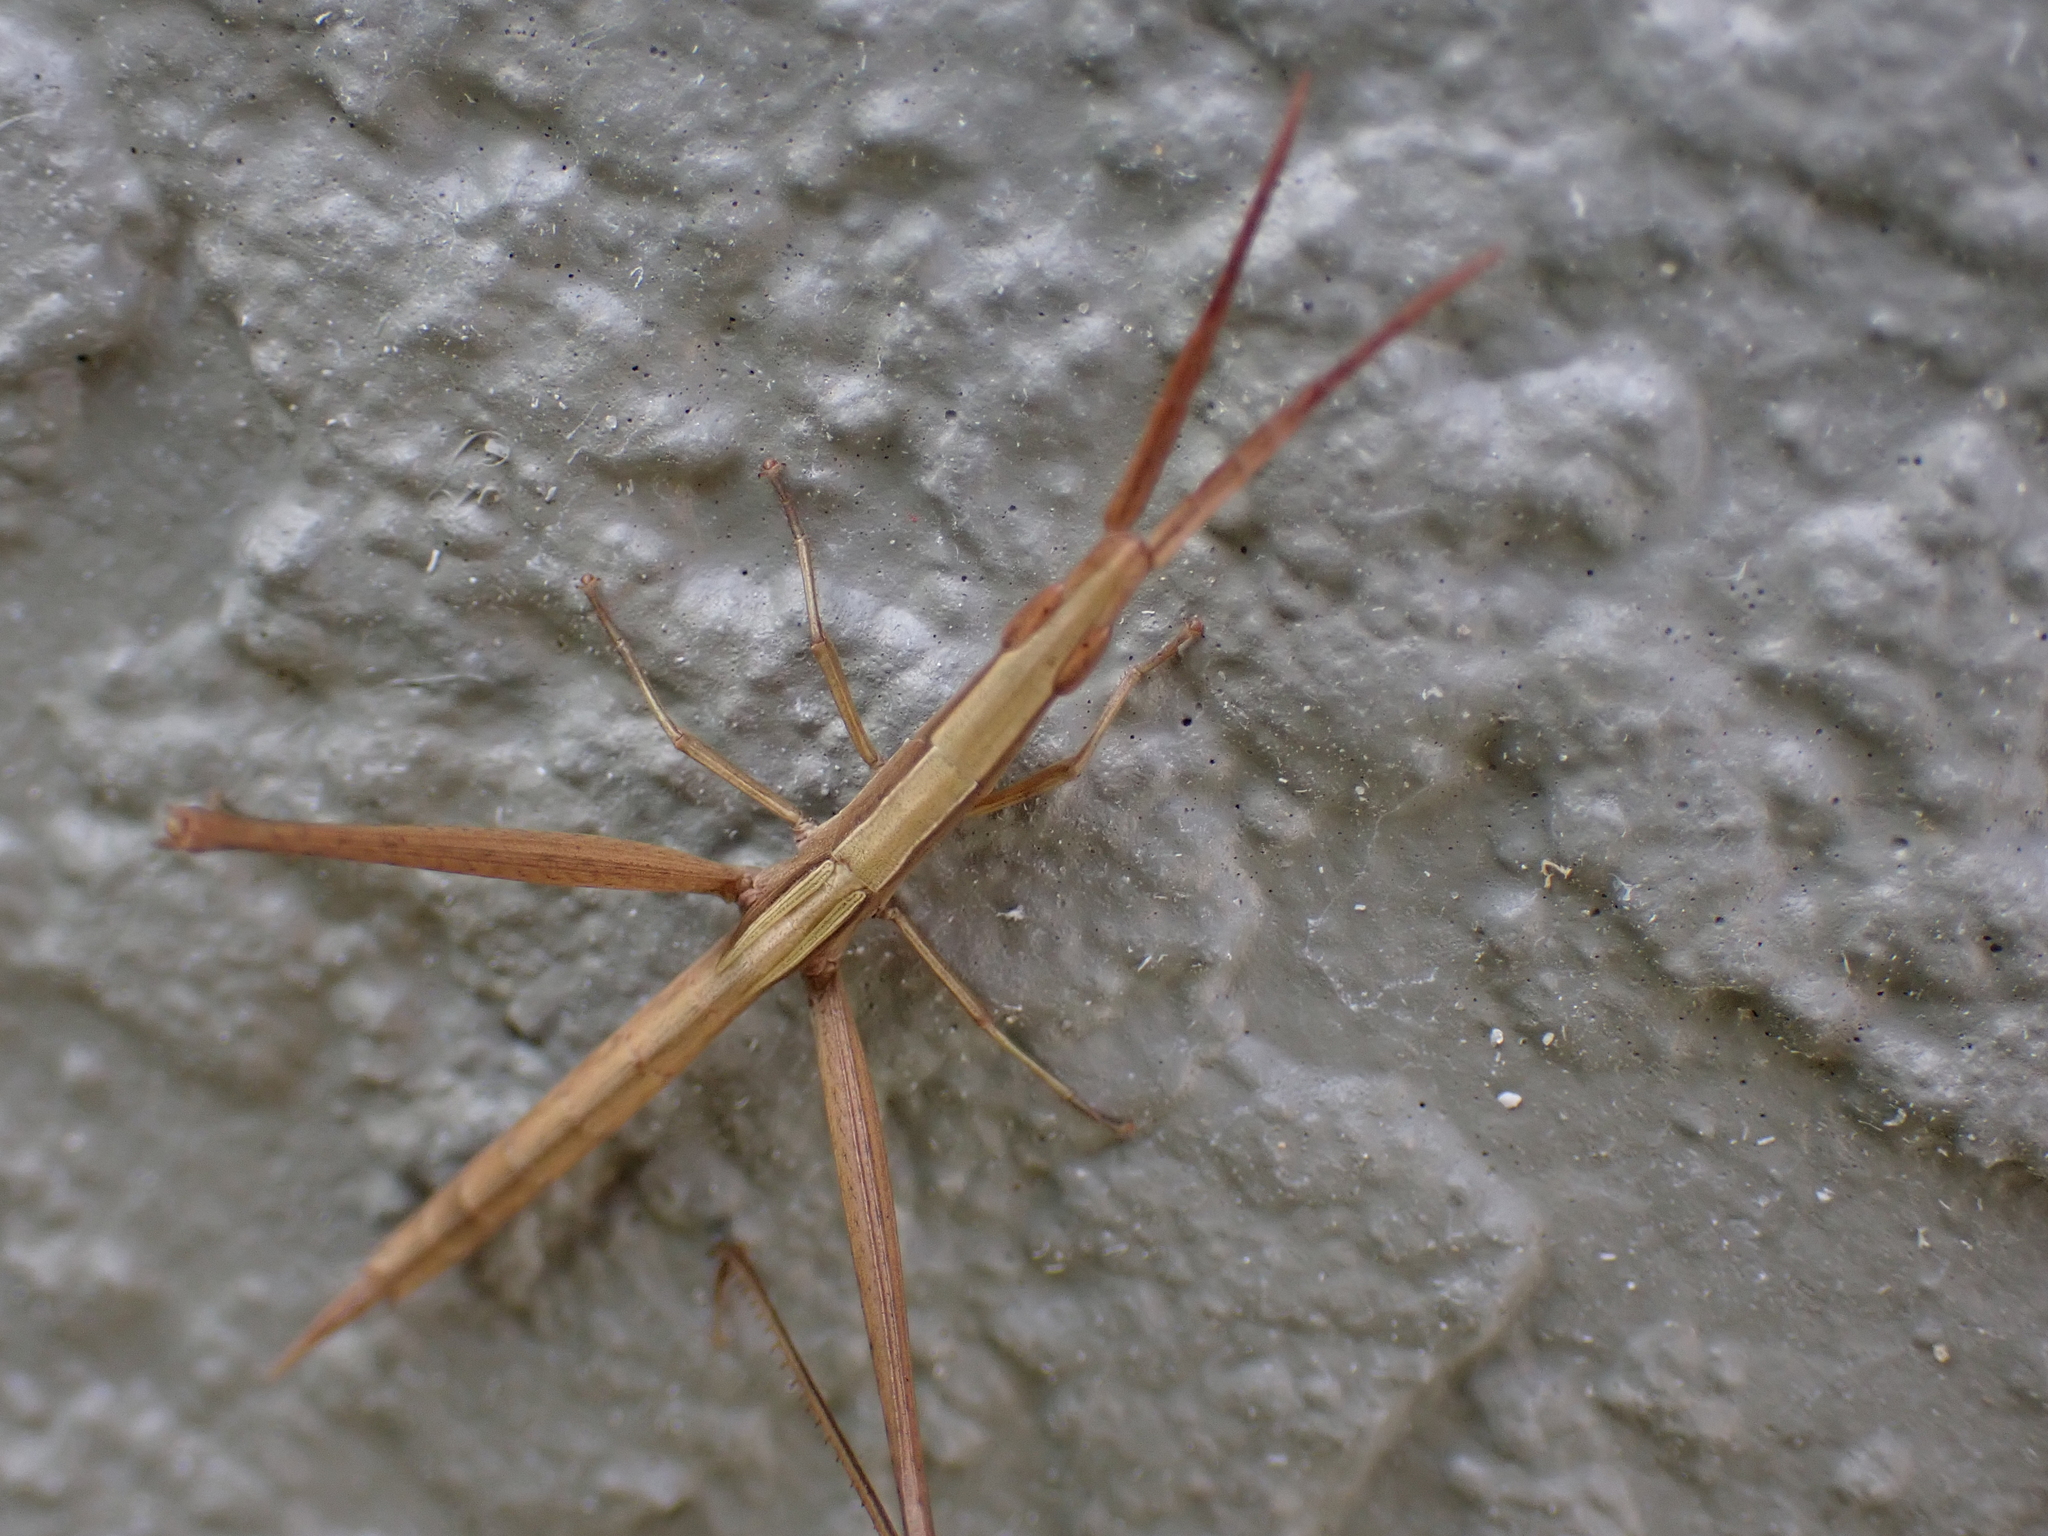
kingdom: Animalia
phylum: Arthropoda
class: Insecta
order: Orthoptera
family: Acrididae
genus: Achurum
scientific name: Achurum carinatum
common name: Long-headed toothpick grasshopper
